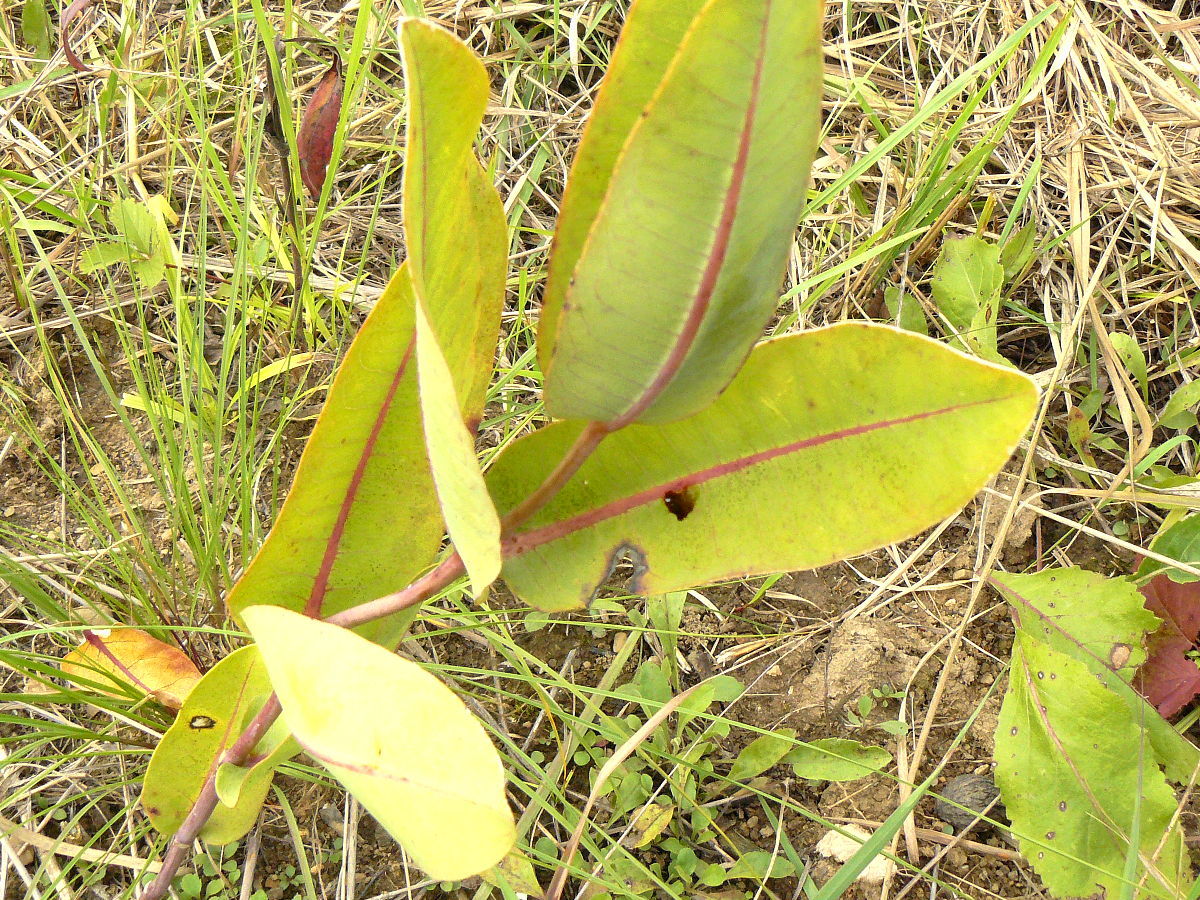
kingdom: Plantae
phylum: Tracheophyta
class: Magnoliopsida
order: Gentianales
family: Apocynaceae
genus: Asclepias
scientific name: Asclepias sullivantii
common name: Prairie milkweed
